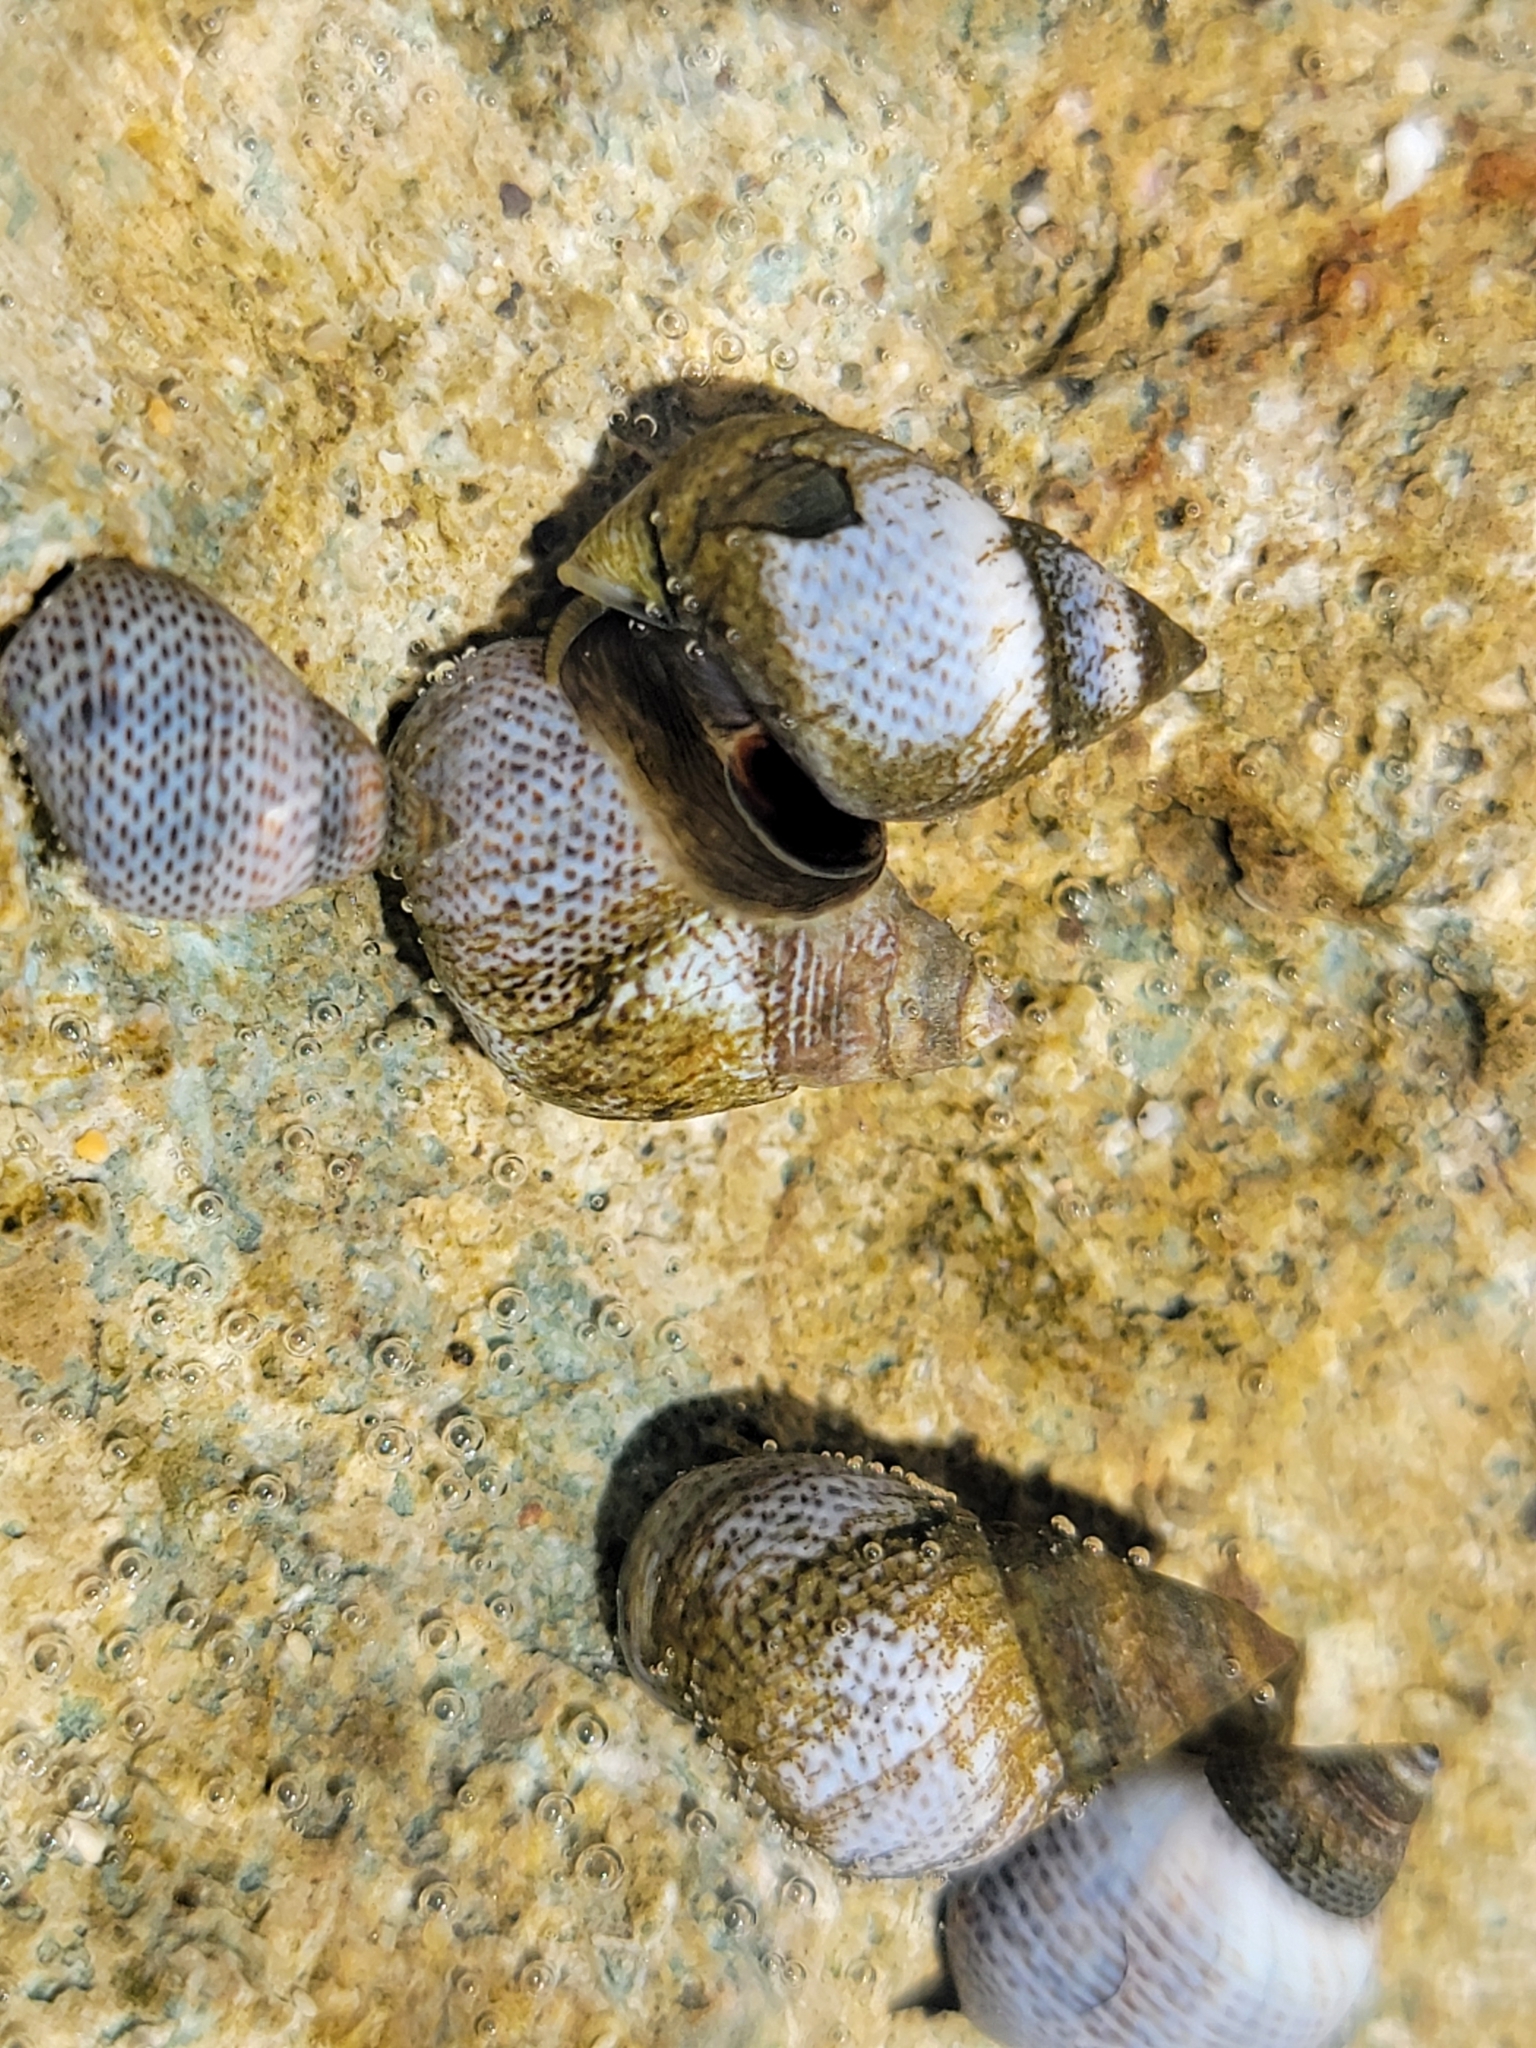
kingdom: Animalia
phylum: Mollusca
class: Gastropoda
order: Littorinimorpha
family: Littorinidae
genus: Littoraria
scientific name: Littoraria pintado
